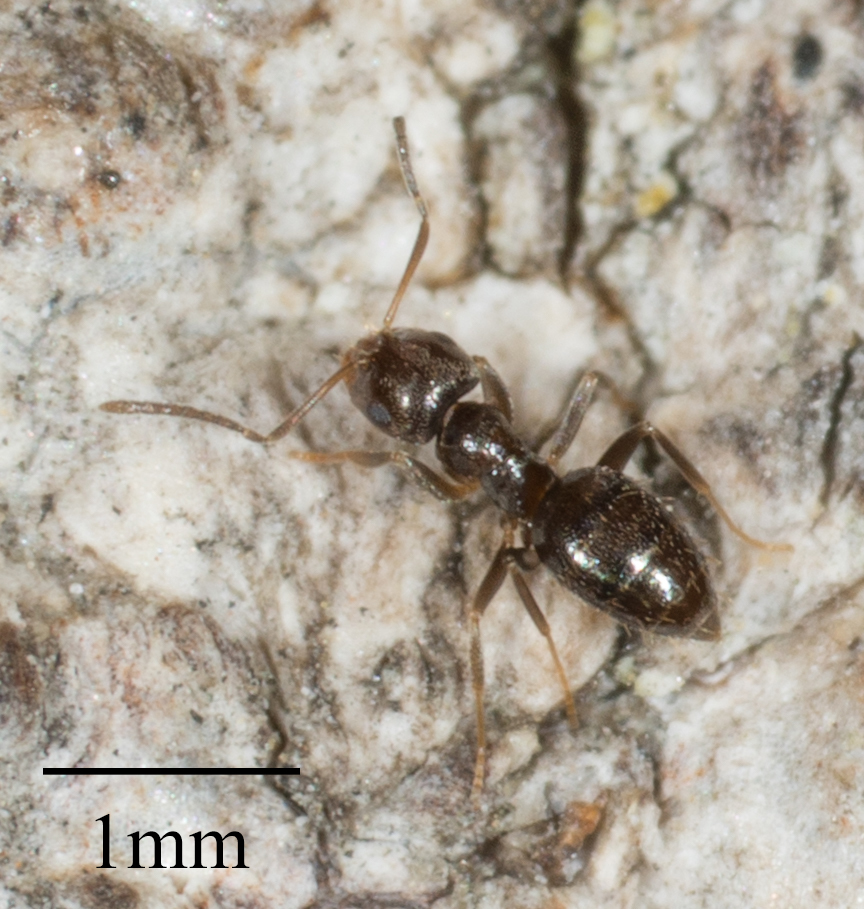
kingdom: Animalia
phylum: Arthropoda
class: Insecta
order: Hymenoptera
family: Formicidae
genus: Brachymyrmex
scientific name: Brachymyrmex patagonicus
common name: Dark rover ant
